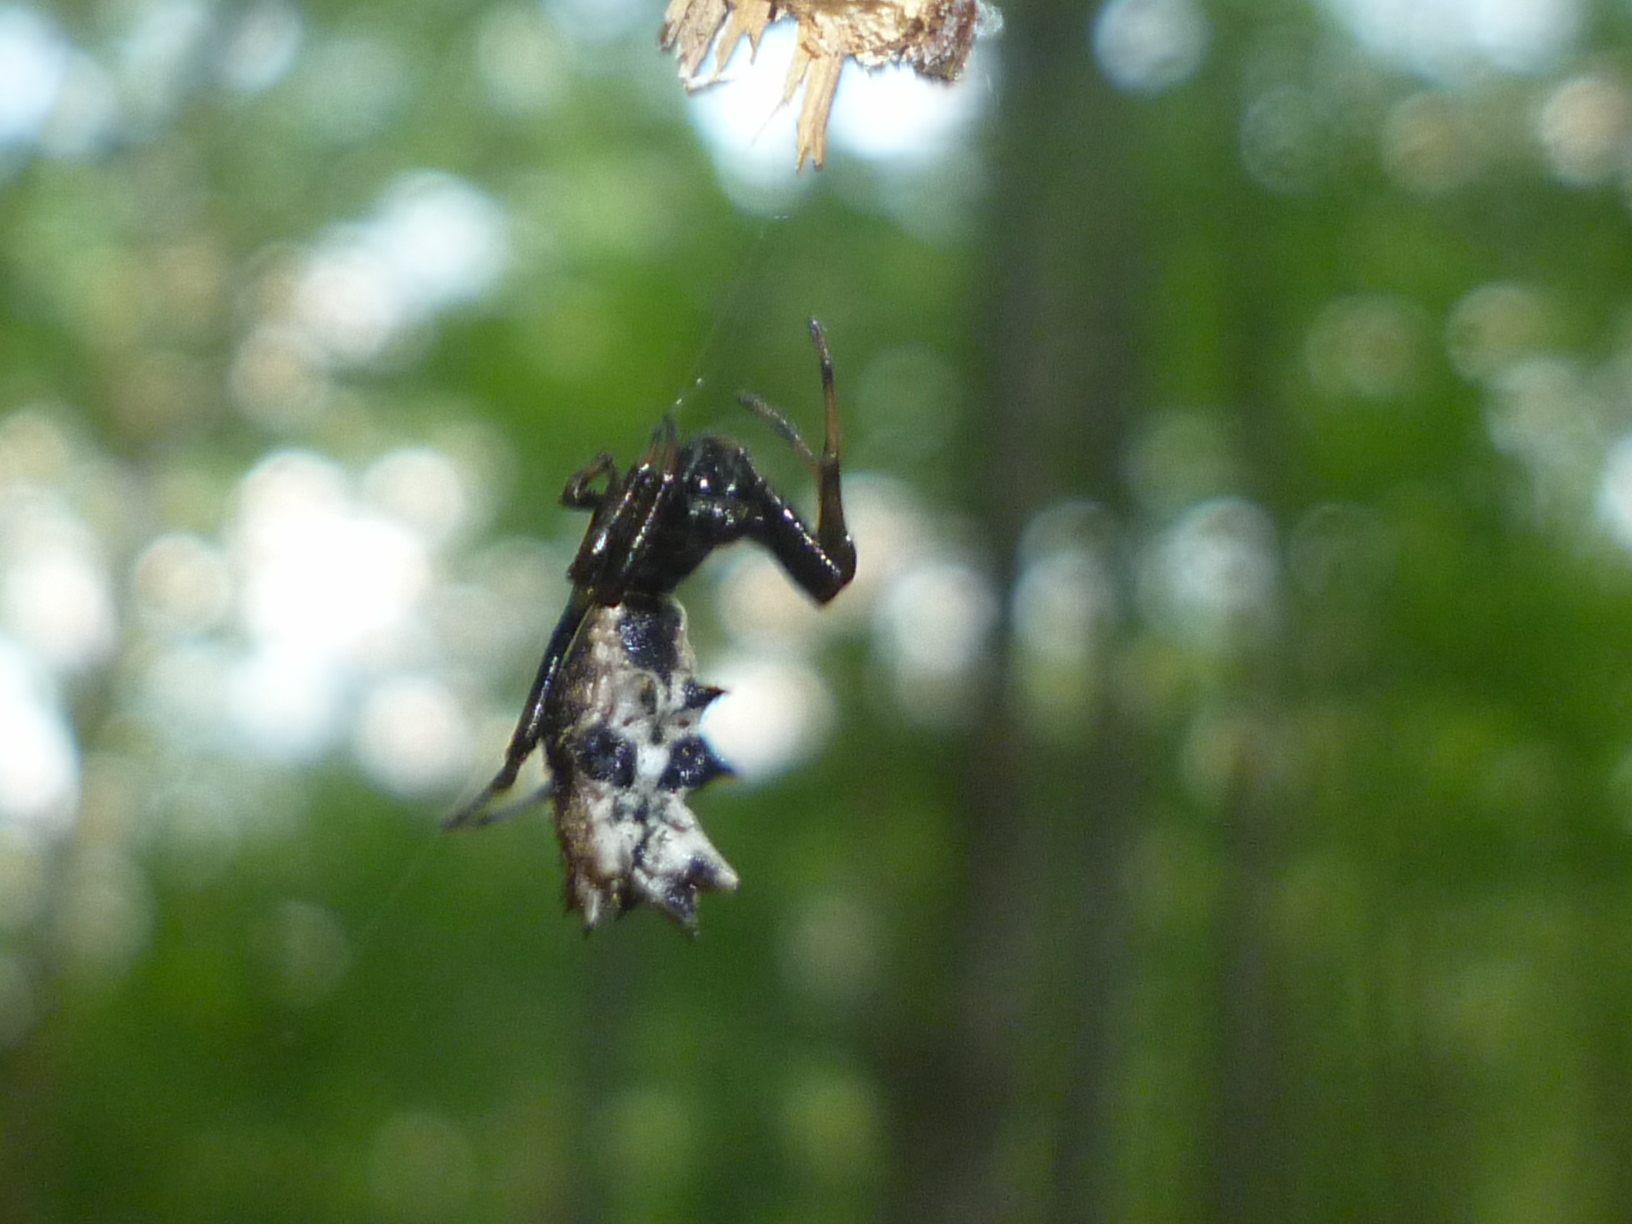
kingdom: Animalia
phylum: Arthropoda
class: Arachnida
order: Araneae
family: Araneidae
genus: Micrathena
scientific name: Micrathena gracilis
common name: Orb weavers
